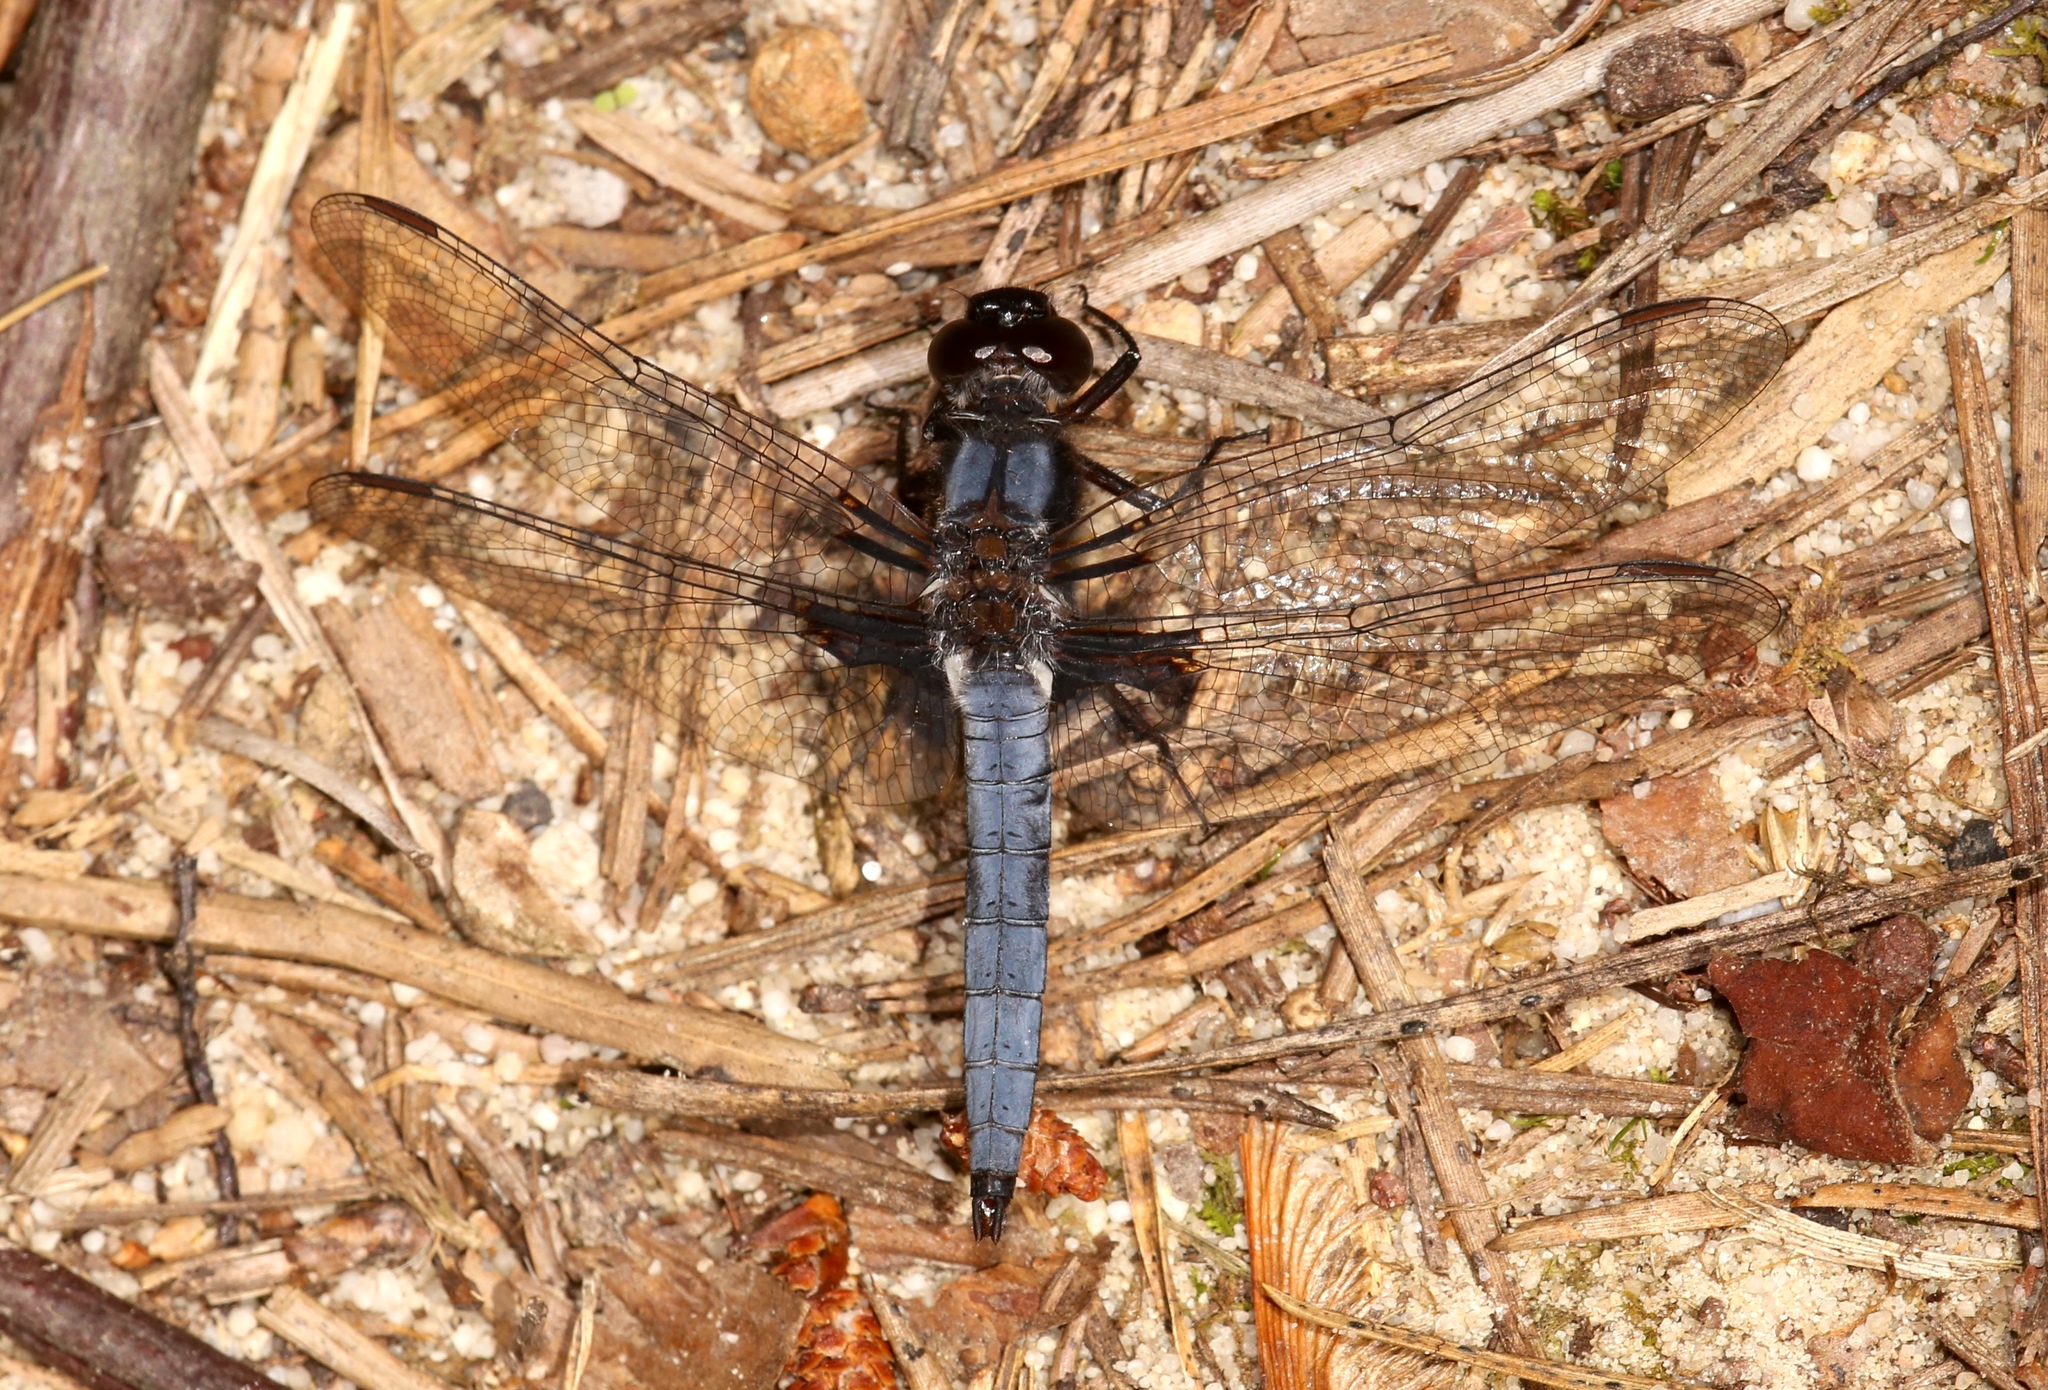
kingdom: Animalia
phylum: Arthropoda
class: Insecta
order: Odonata
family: Libellulidae
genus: Ladona
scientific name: Ladona deplanata
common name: Blue corporal
